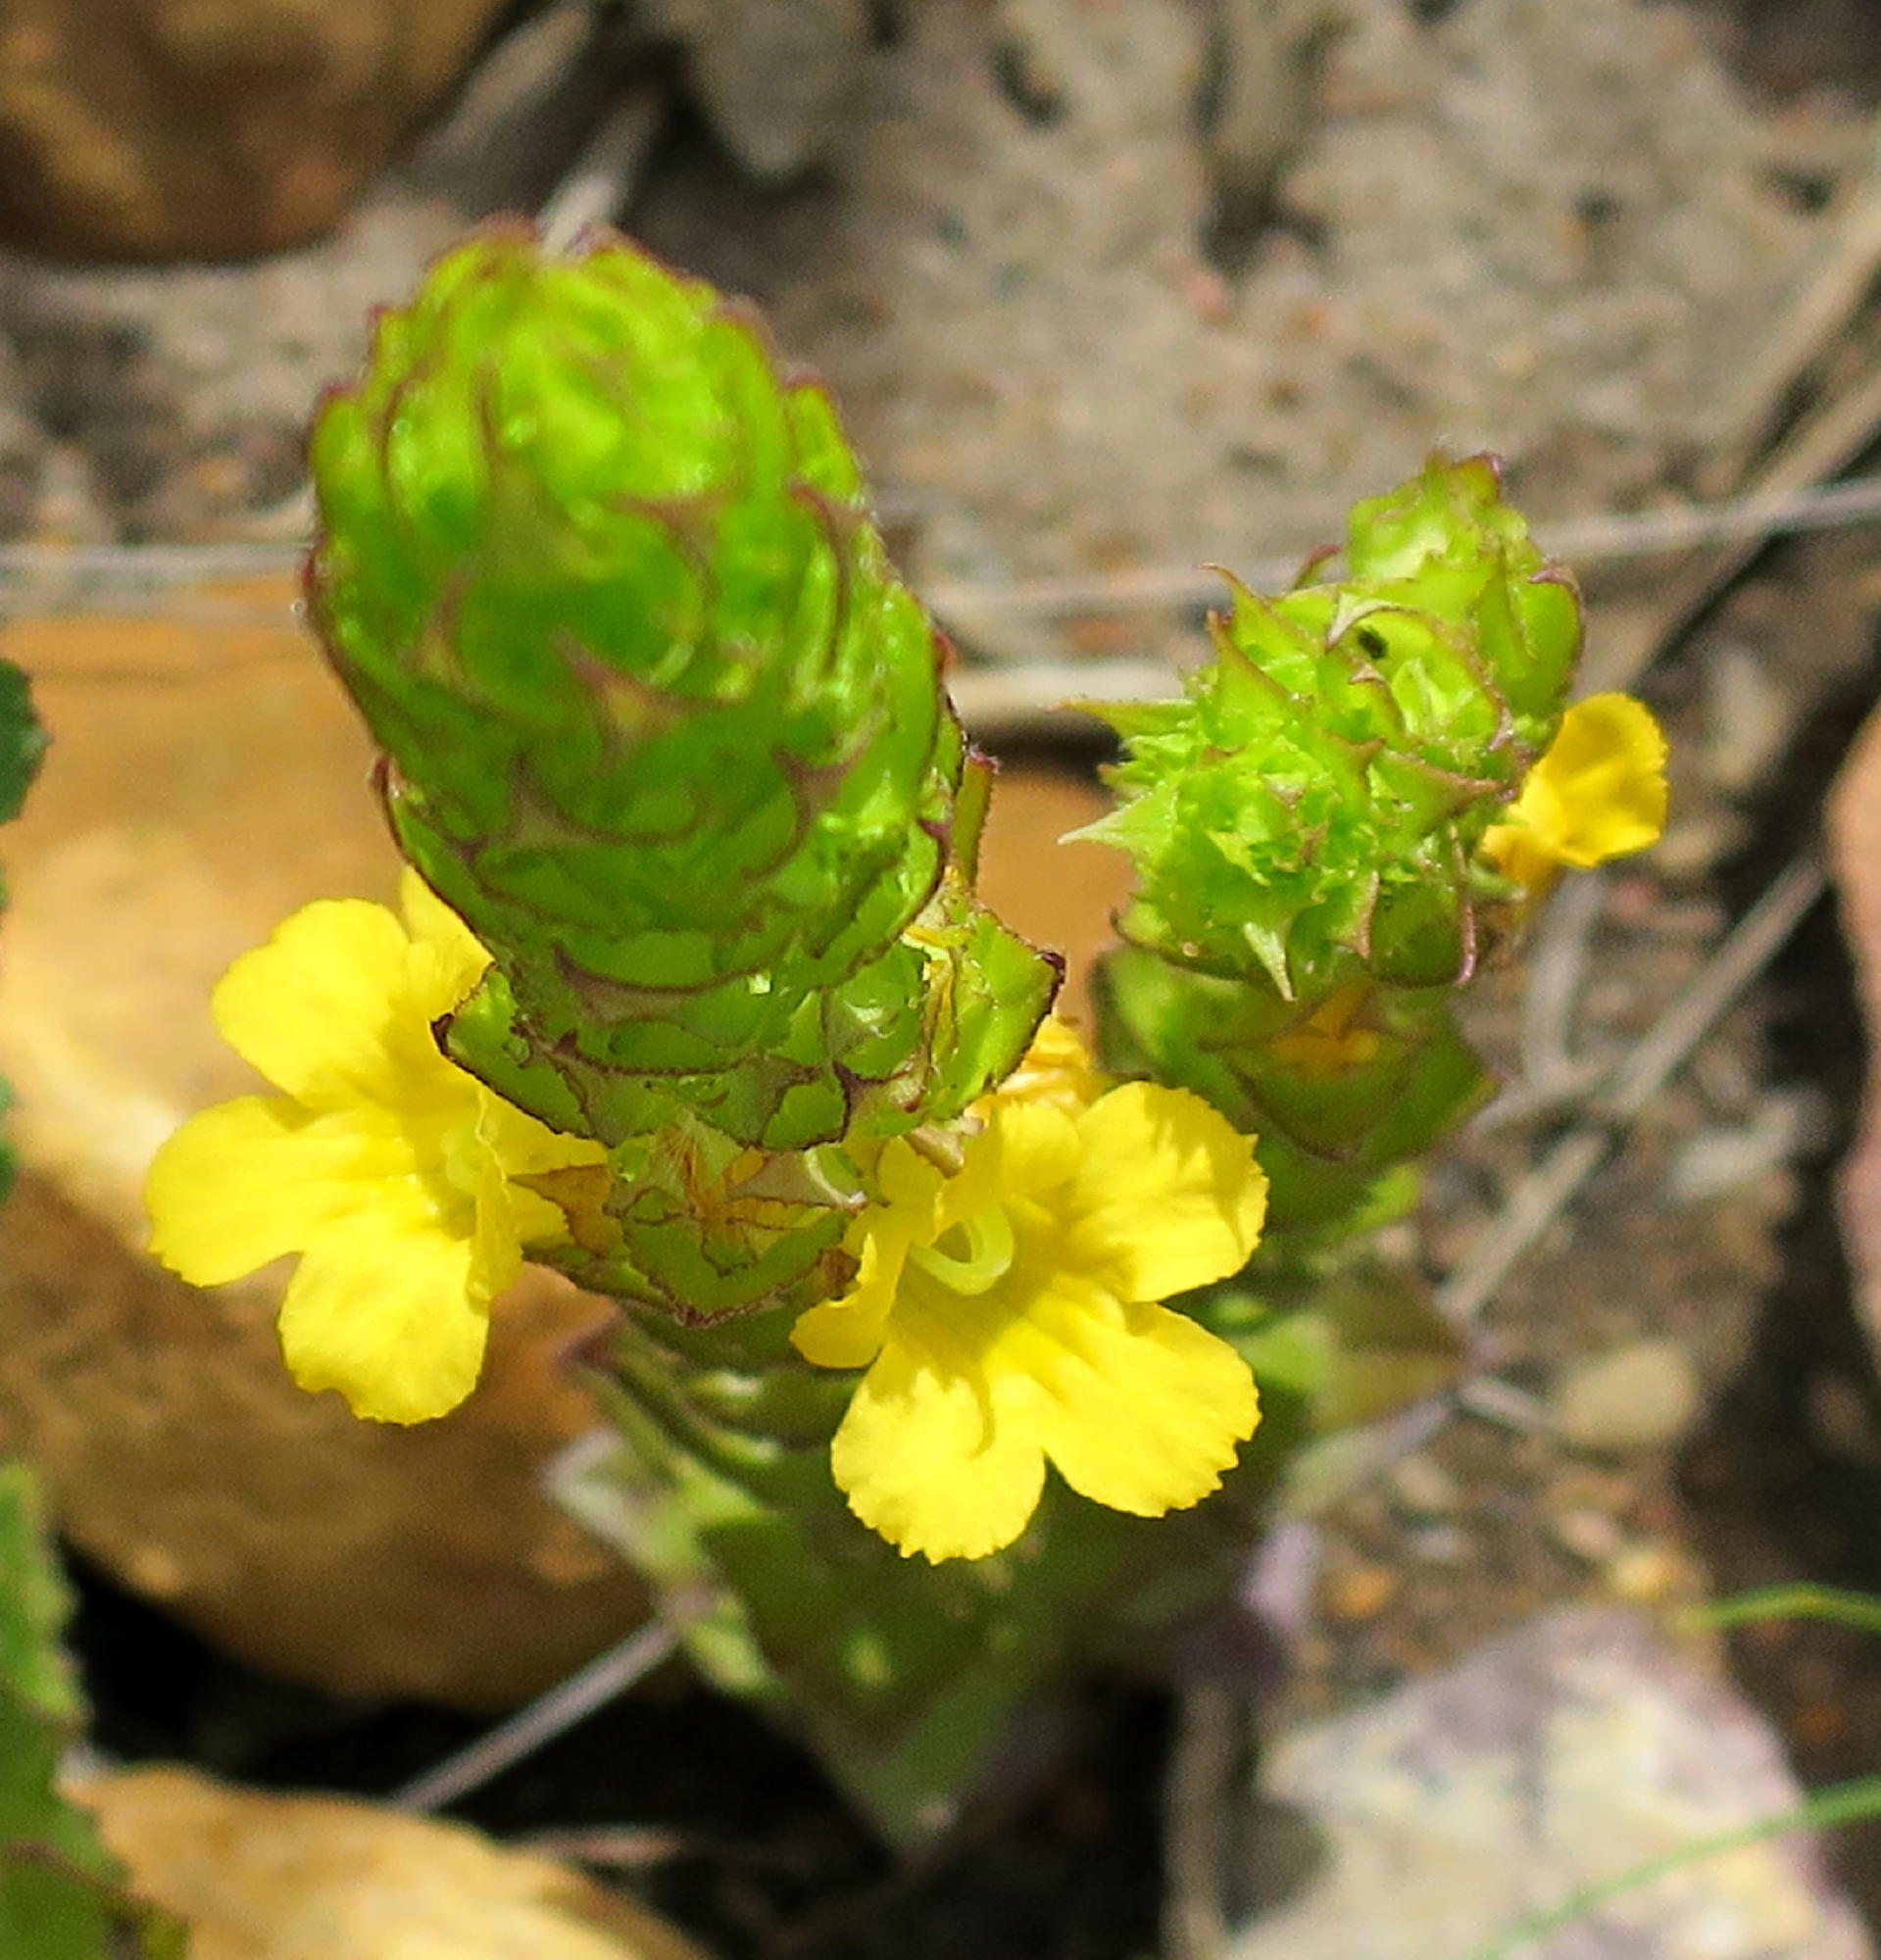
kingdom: Plantae
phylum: Tracheophyta
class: Magnoliopsida
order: Lamiales
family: Orobanchaceae
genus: Alectra
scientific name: Alectra sessiliflora
